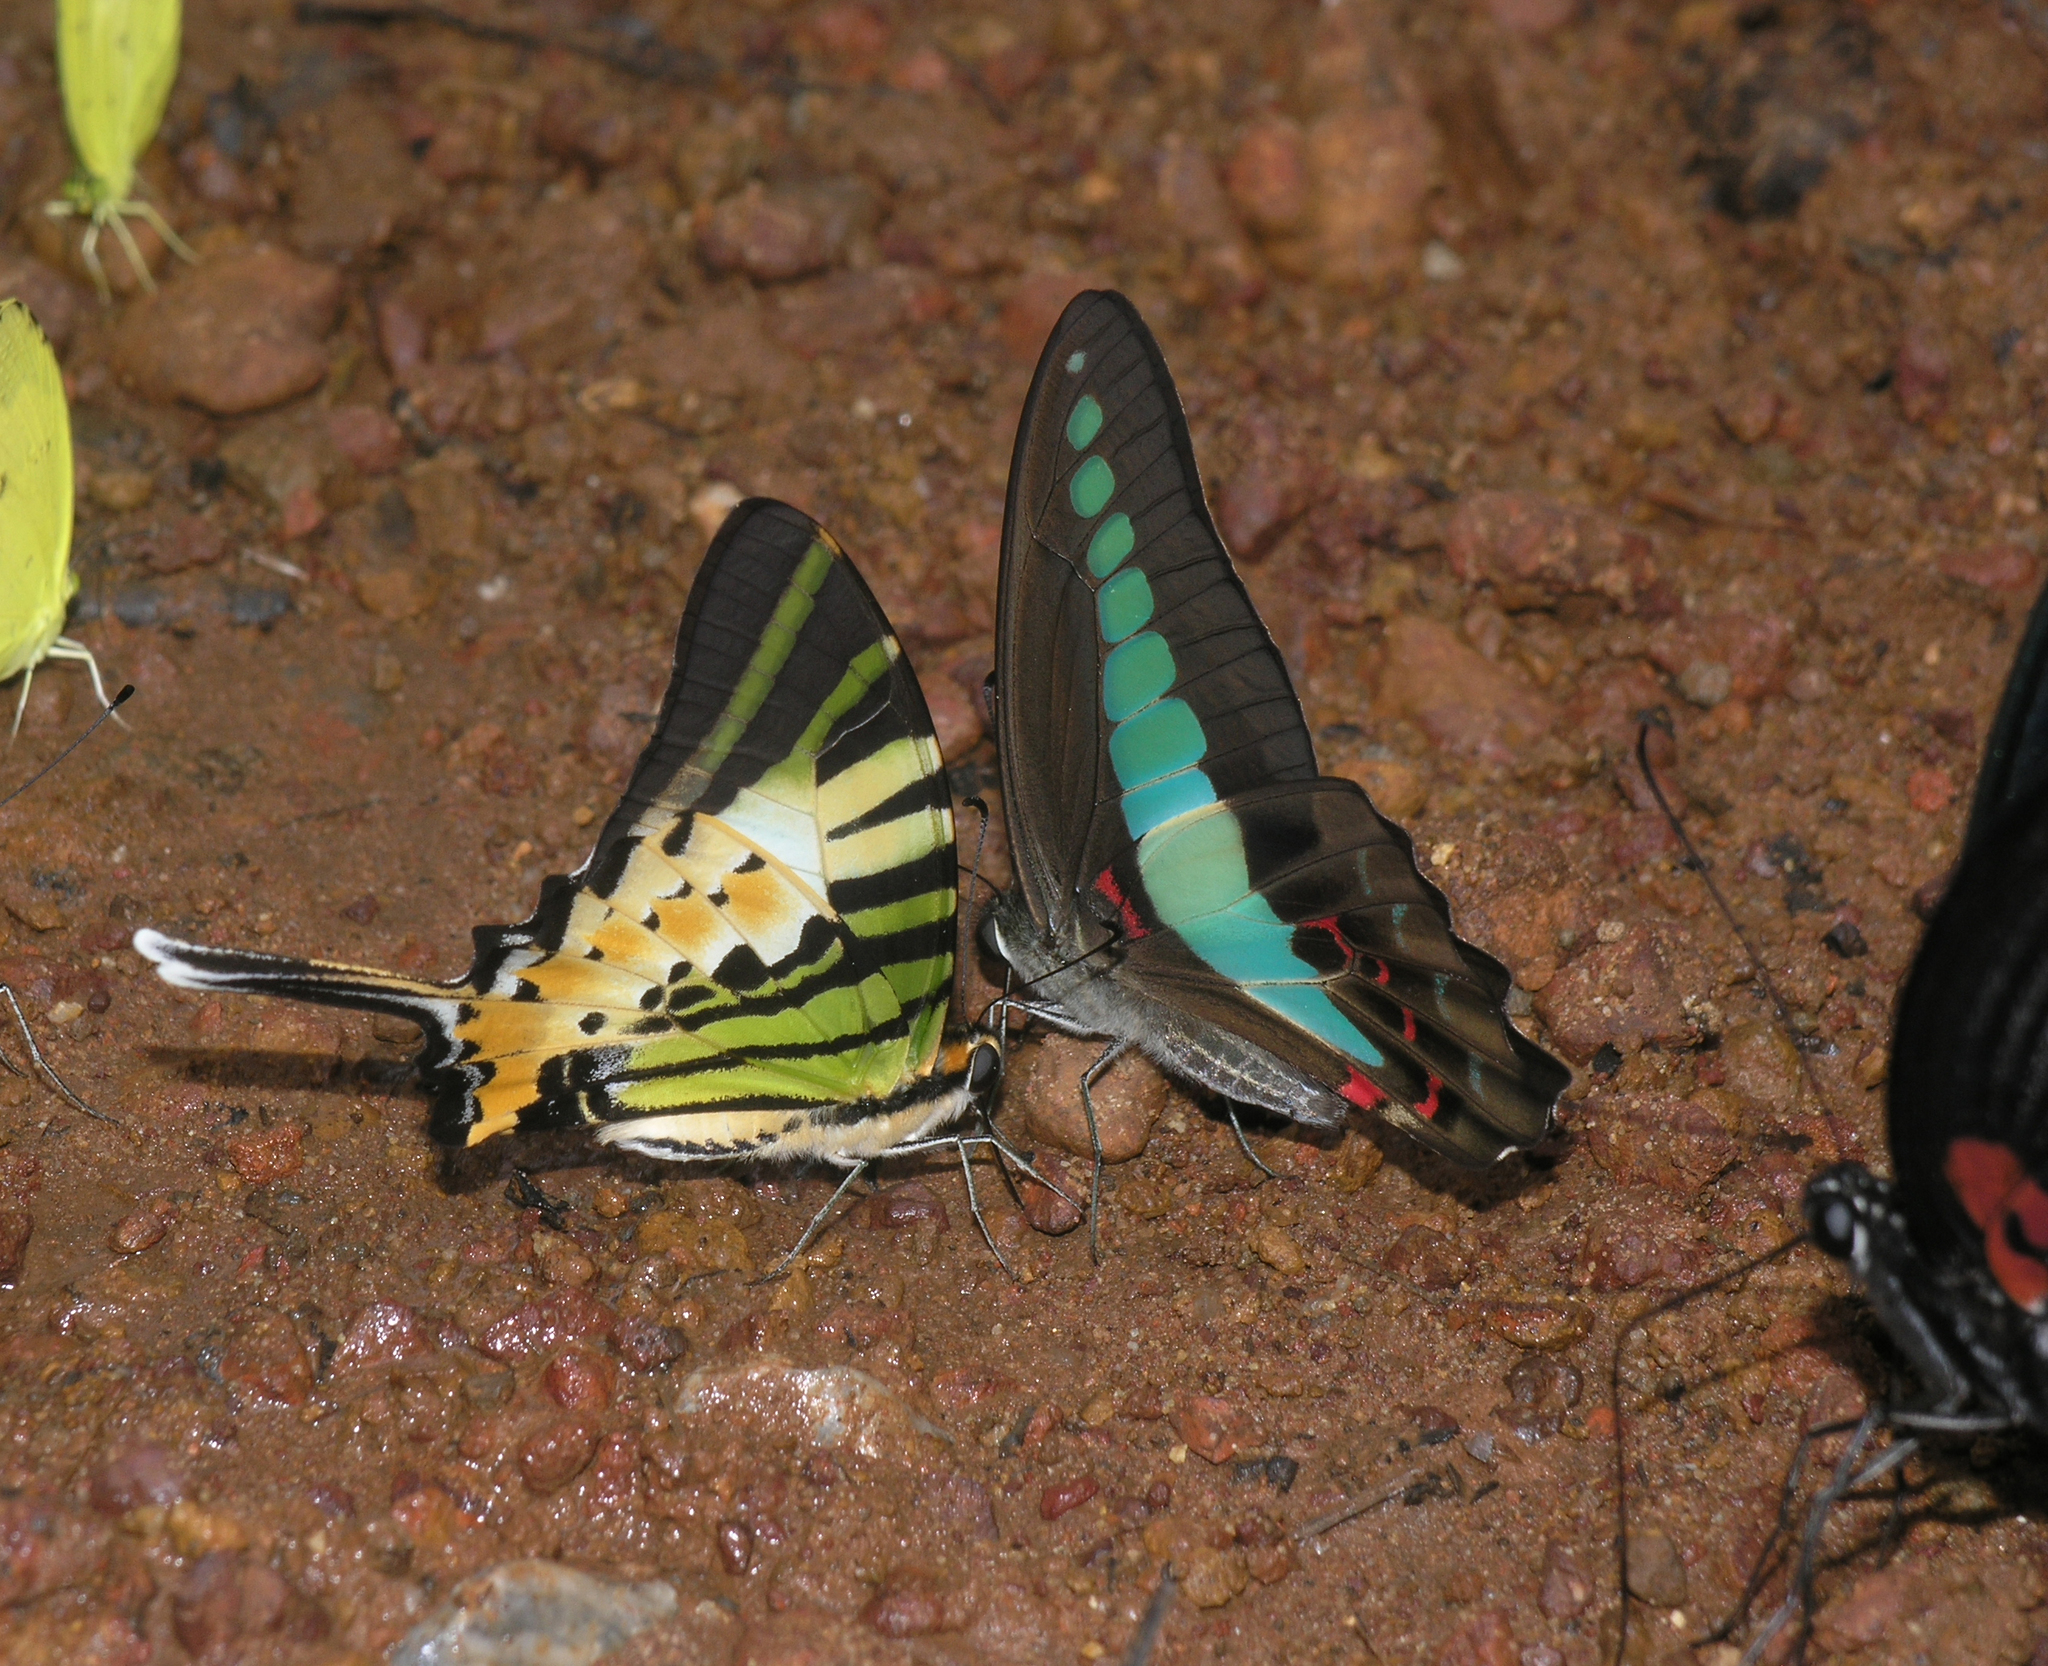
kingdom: Animalia
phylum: Arthropoda
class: Insecta
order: Lepidoptera
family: Papilionidae
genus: Graphium
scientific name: Graphium antiphates
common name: Fivebar swordtail
